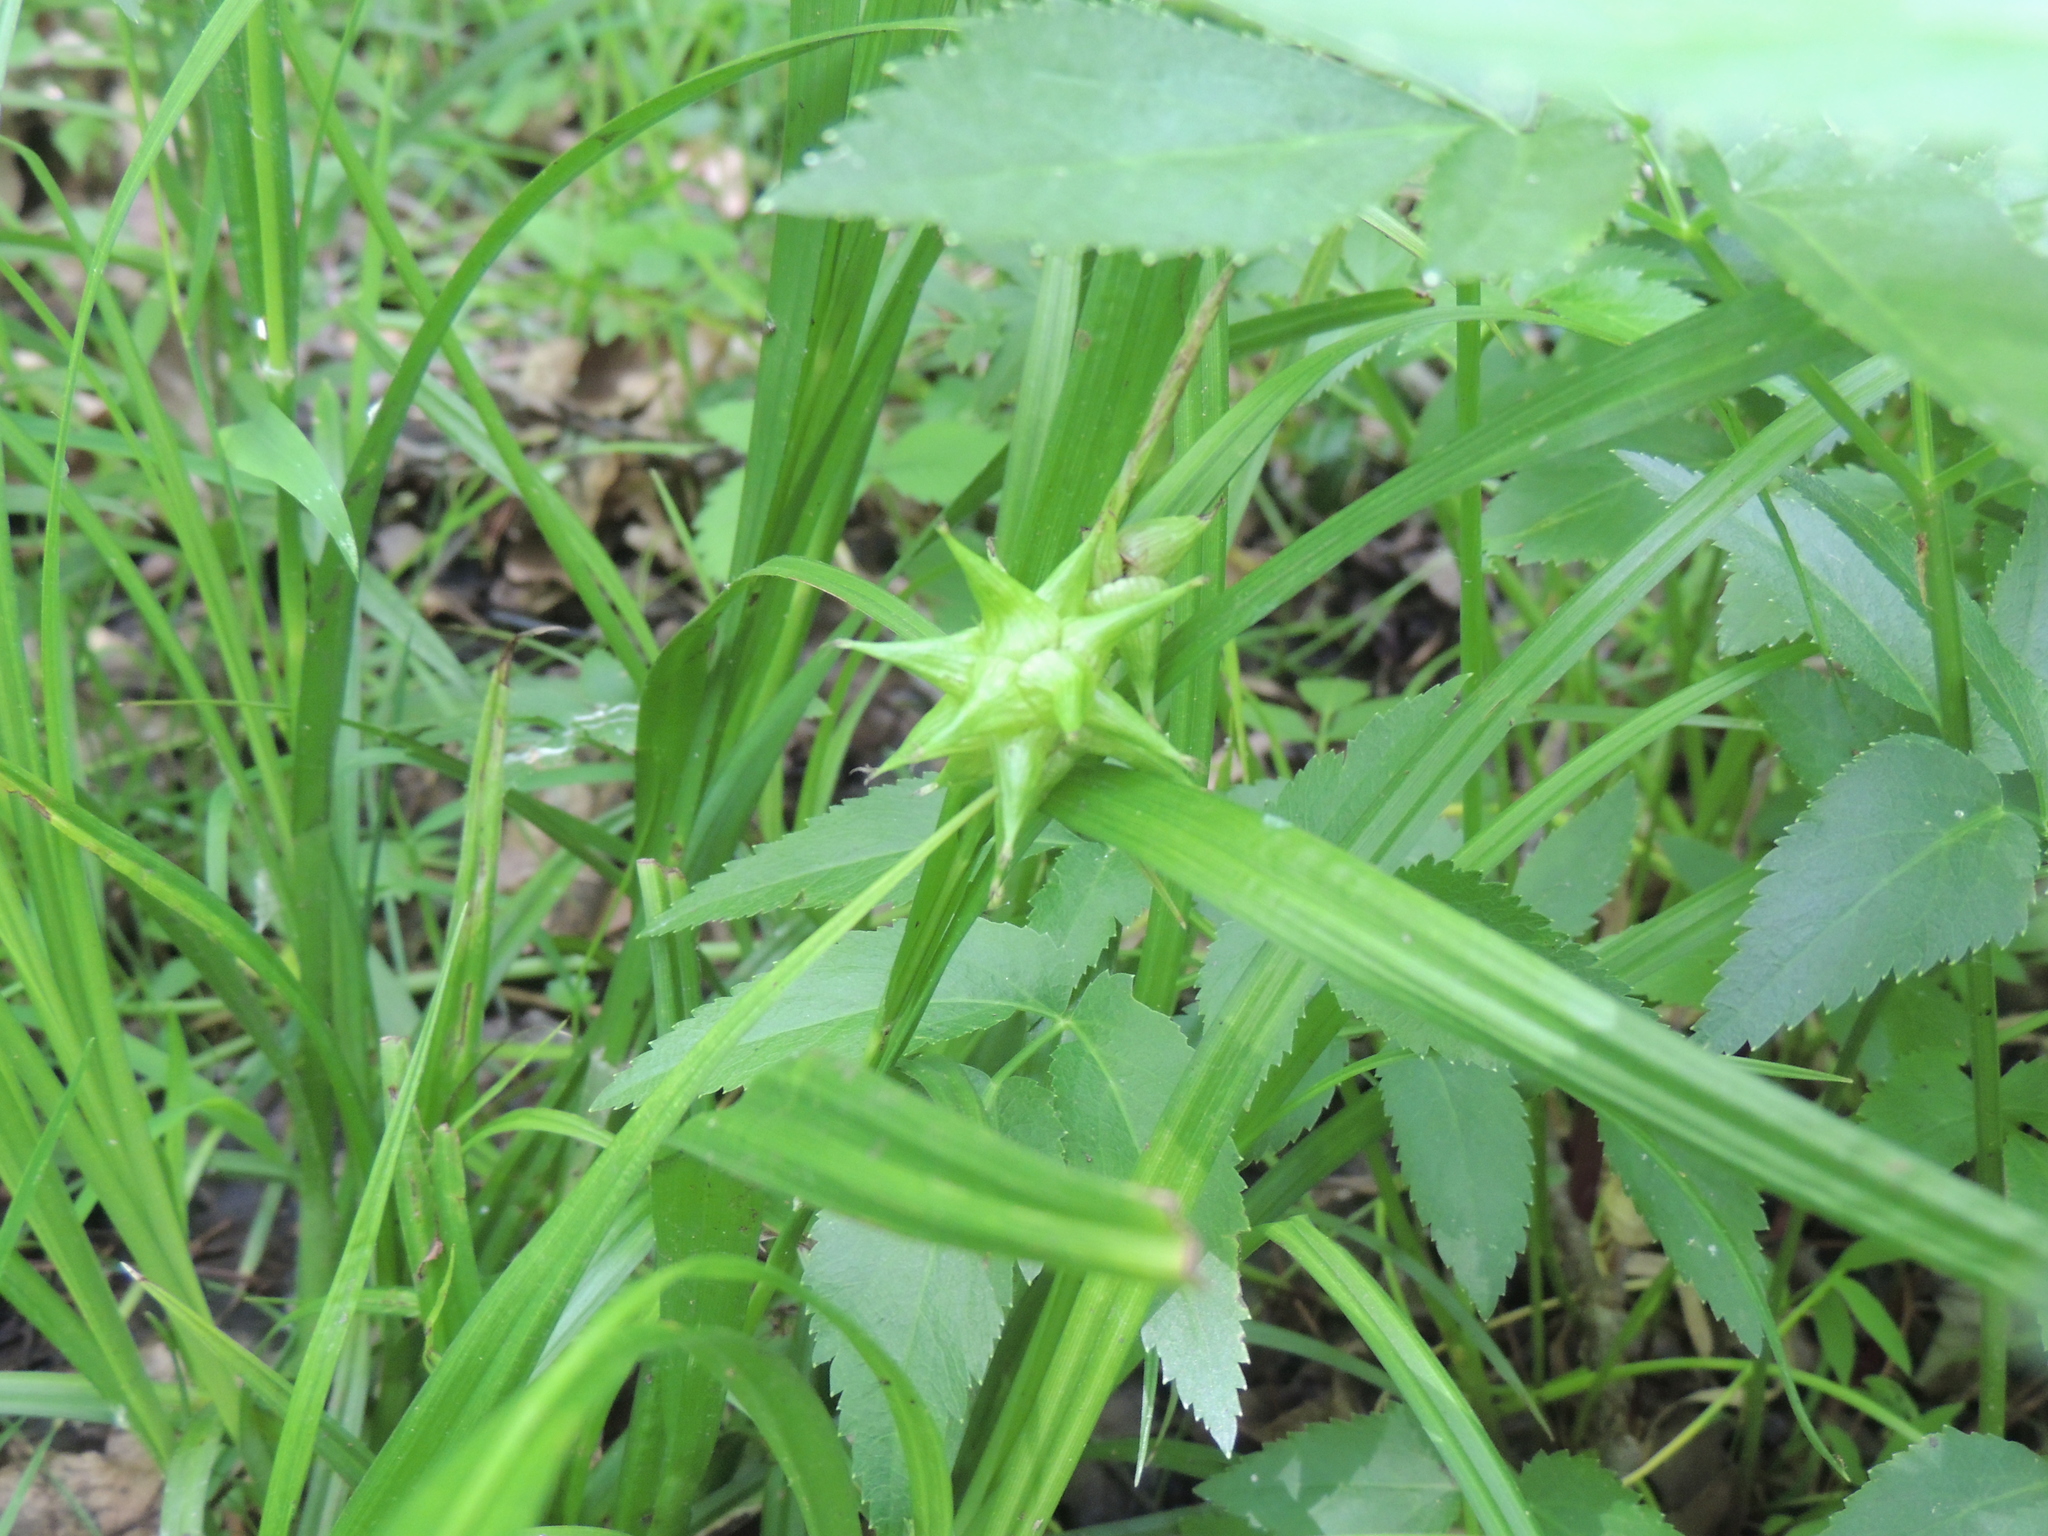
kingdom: Plantae
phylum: Tracheophyta
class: Liliopsida
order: Poales
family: Cyperaceae
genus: Carex
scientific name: Carex grayi
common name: Asa gray's sedge
